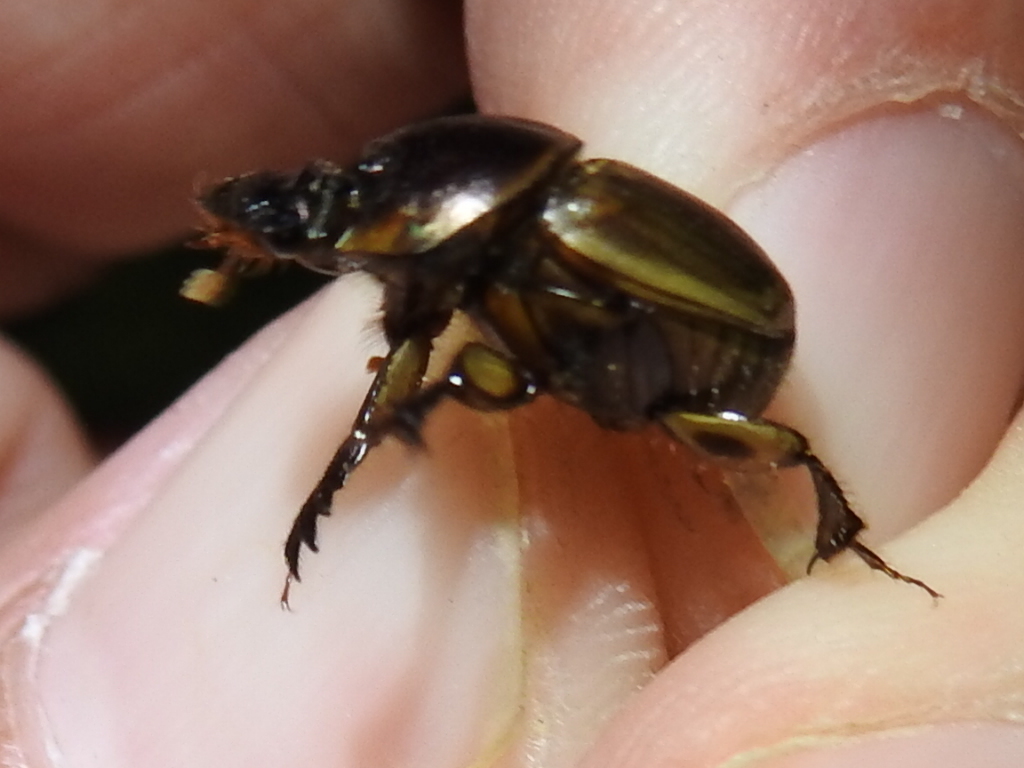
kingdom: Animalia
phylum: Arthropoda
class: Insecta
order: Coleoptera
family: Scarabaeidae
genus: Digitonthophagus
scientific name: Digitonthophagus gazella
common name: Brown dung beetle
